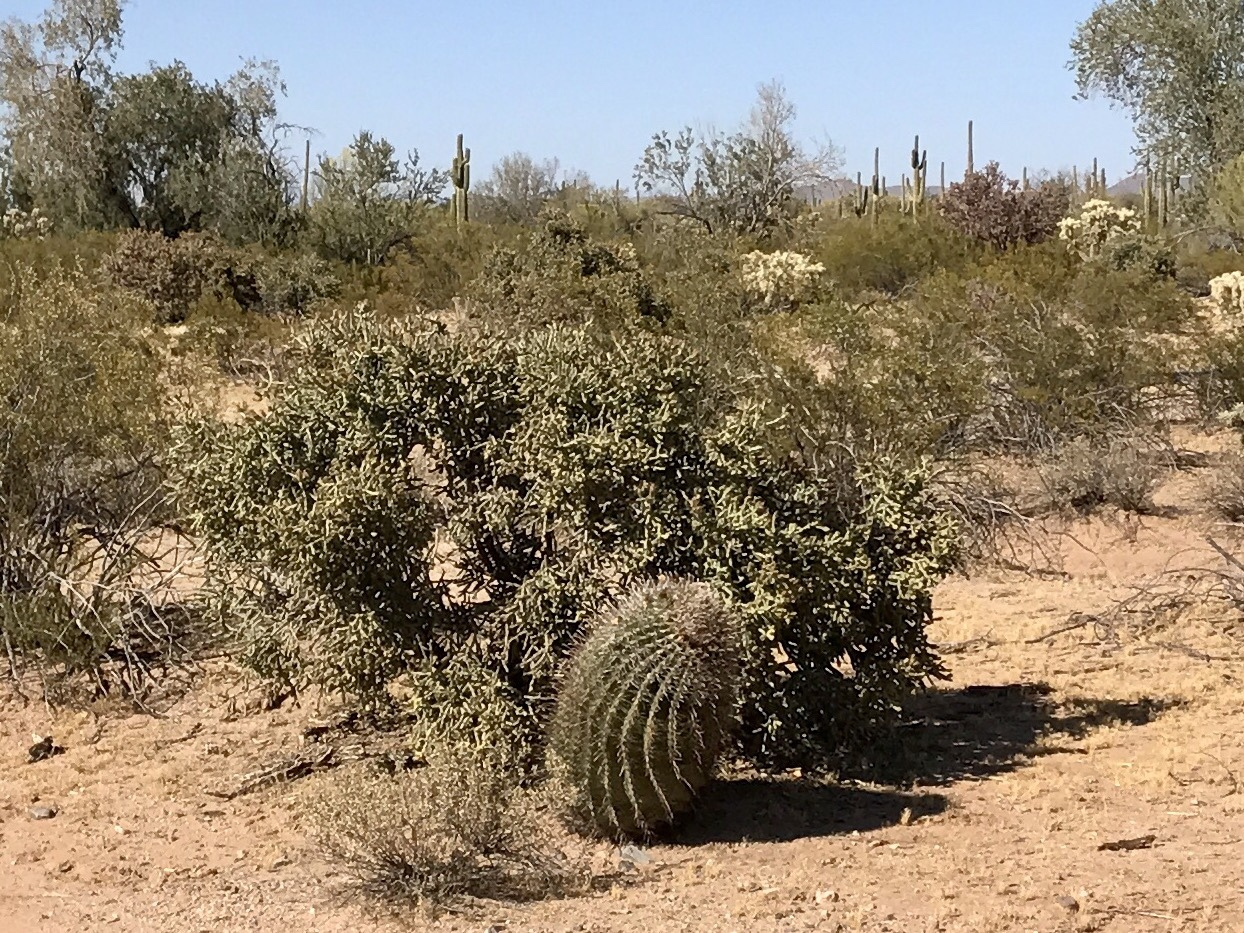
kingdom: Plantae
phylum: Tracheophyta
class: Magnoliopsida
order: Caryophyllales
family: Cactaceae
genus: Ferocactus
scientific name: Ferocactus wislizeni
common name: Candy barrel cactus
